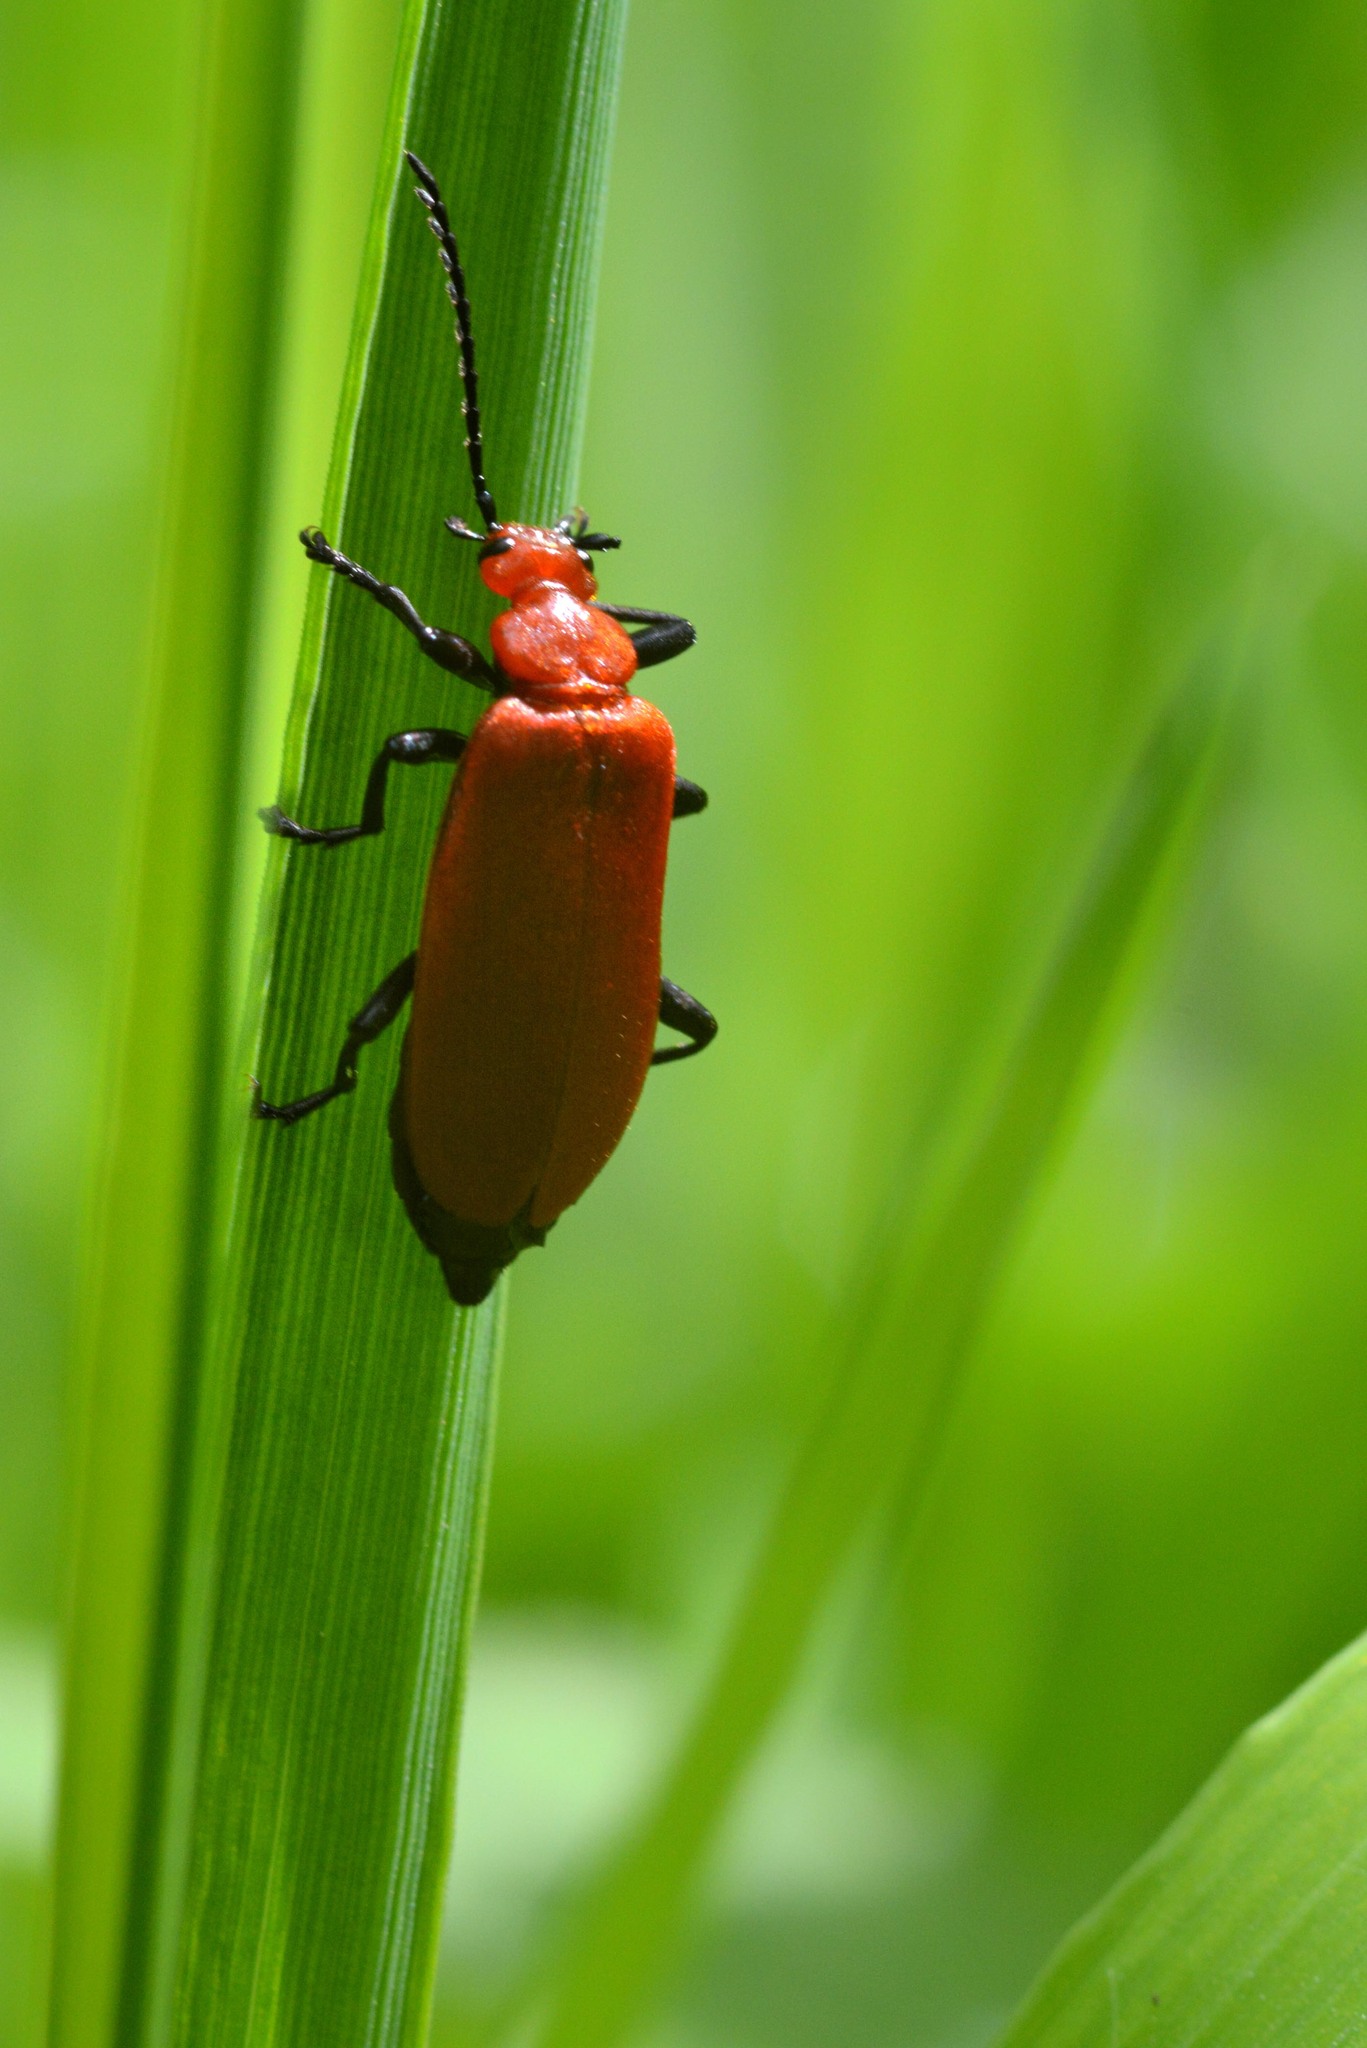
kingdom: Animalia
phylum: Arthropoda
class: Insecta
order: Coleoptera
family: Pyrochroidae
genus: Pyrochroa
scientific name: Pyrochroa serraticornis
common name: Red-headed cardinal beetle
